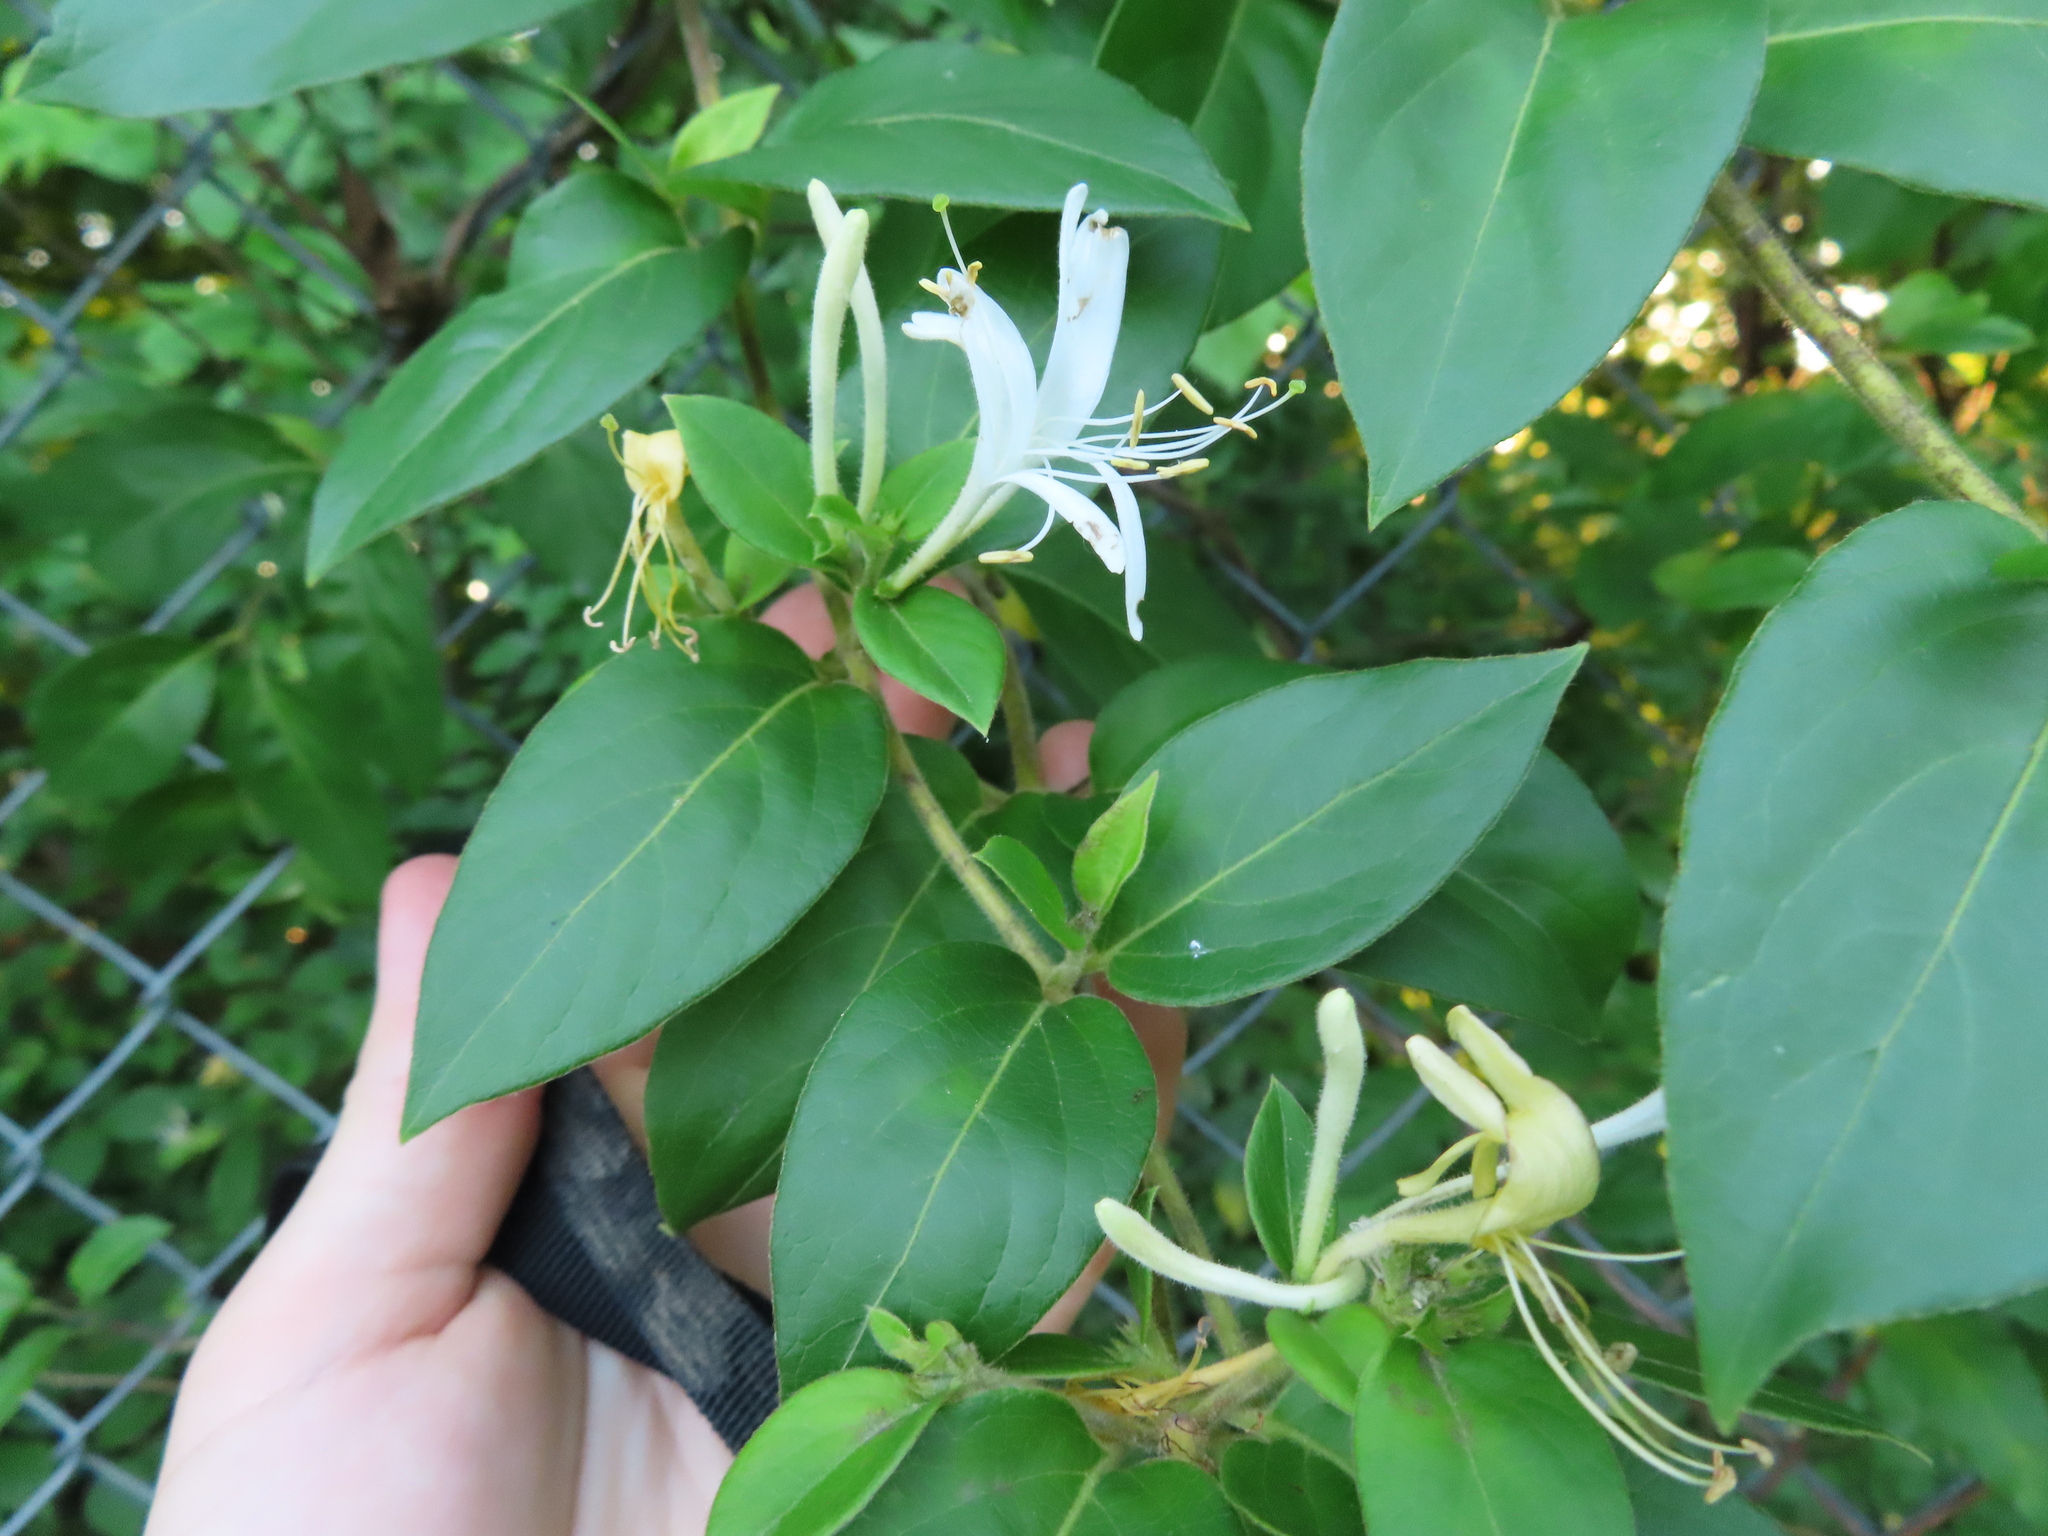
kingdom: Plantae
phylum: Tracheophyta
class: Magnoliopsida
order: Dipsacales
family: Caprifoliaceae
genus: Lonicera
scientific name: Lonicera japonica
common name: Japanese honeysuckle
